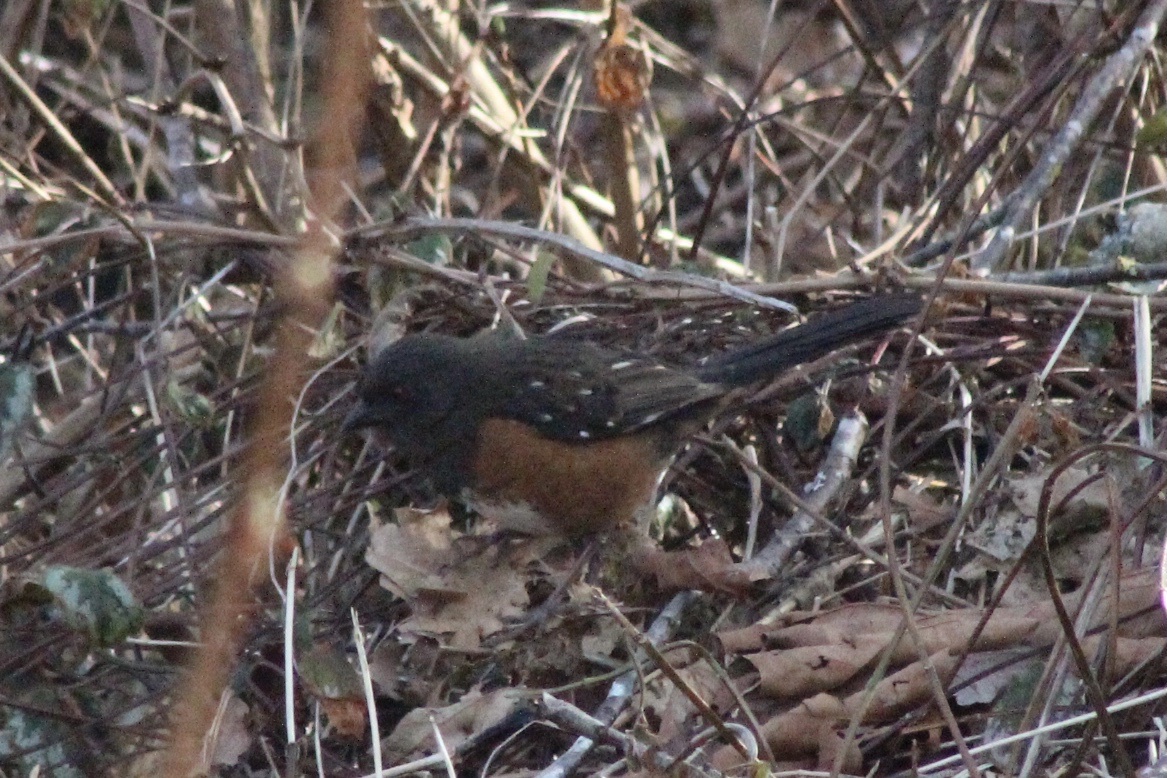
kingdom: Animalia
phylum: Chordata
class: Aves
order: Passeriformes
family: Passerellidae
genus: Pipilo
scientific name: Pipilo maculatus
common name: Spotted towhee
